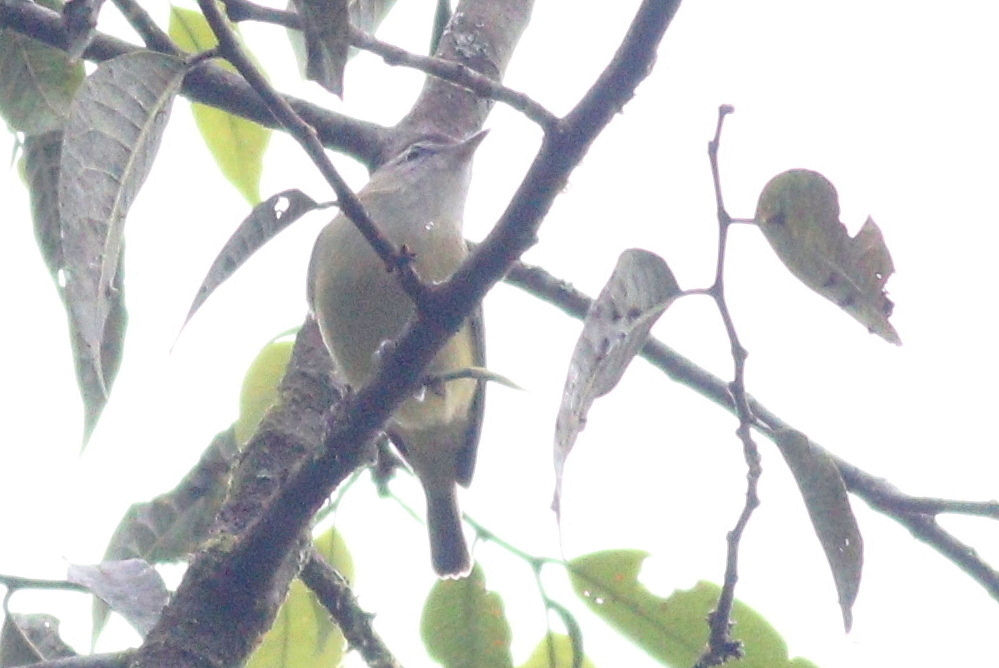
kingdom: Animalia
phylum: Chordata
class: Aves
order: Passeriformes
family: Vireonidae
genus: Vireo
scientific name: Vireo leucophrys
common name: Brown-capped vireo
